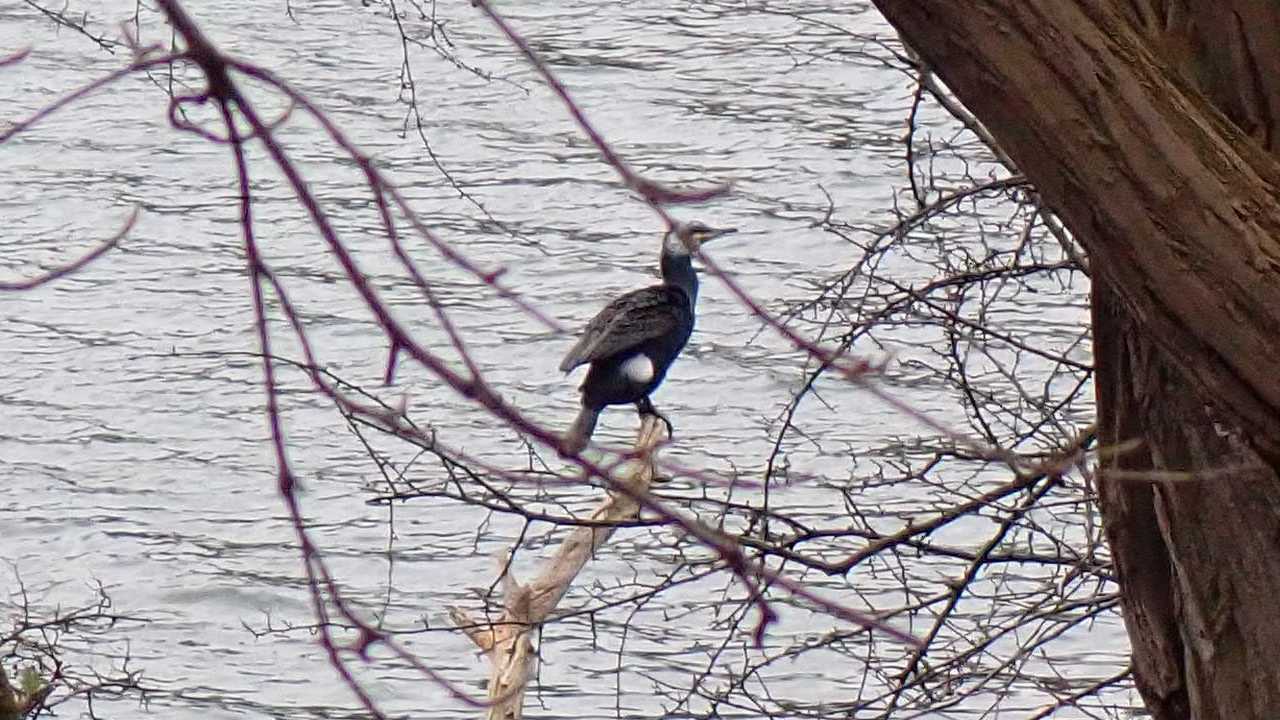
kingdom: Animalia
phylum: Chordata
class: Aves
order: Suliformes
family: Phalacrocoracidae
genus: Phalacrocorax
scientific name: Phalacrocorax carbo
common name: Great cormorant
